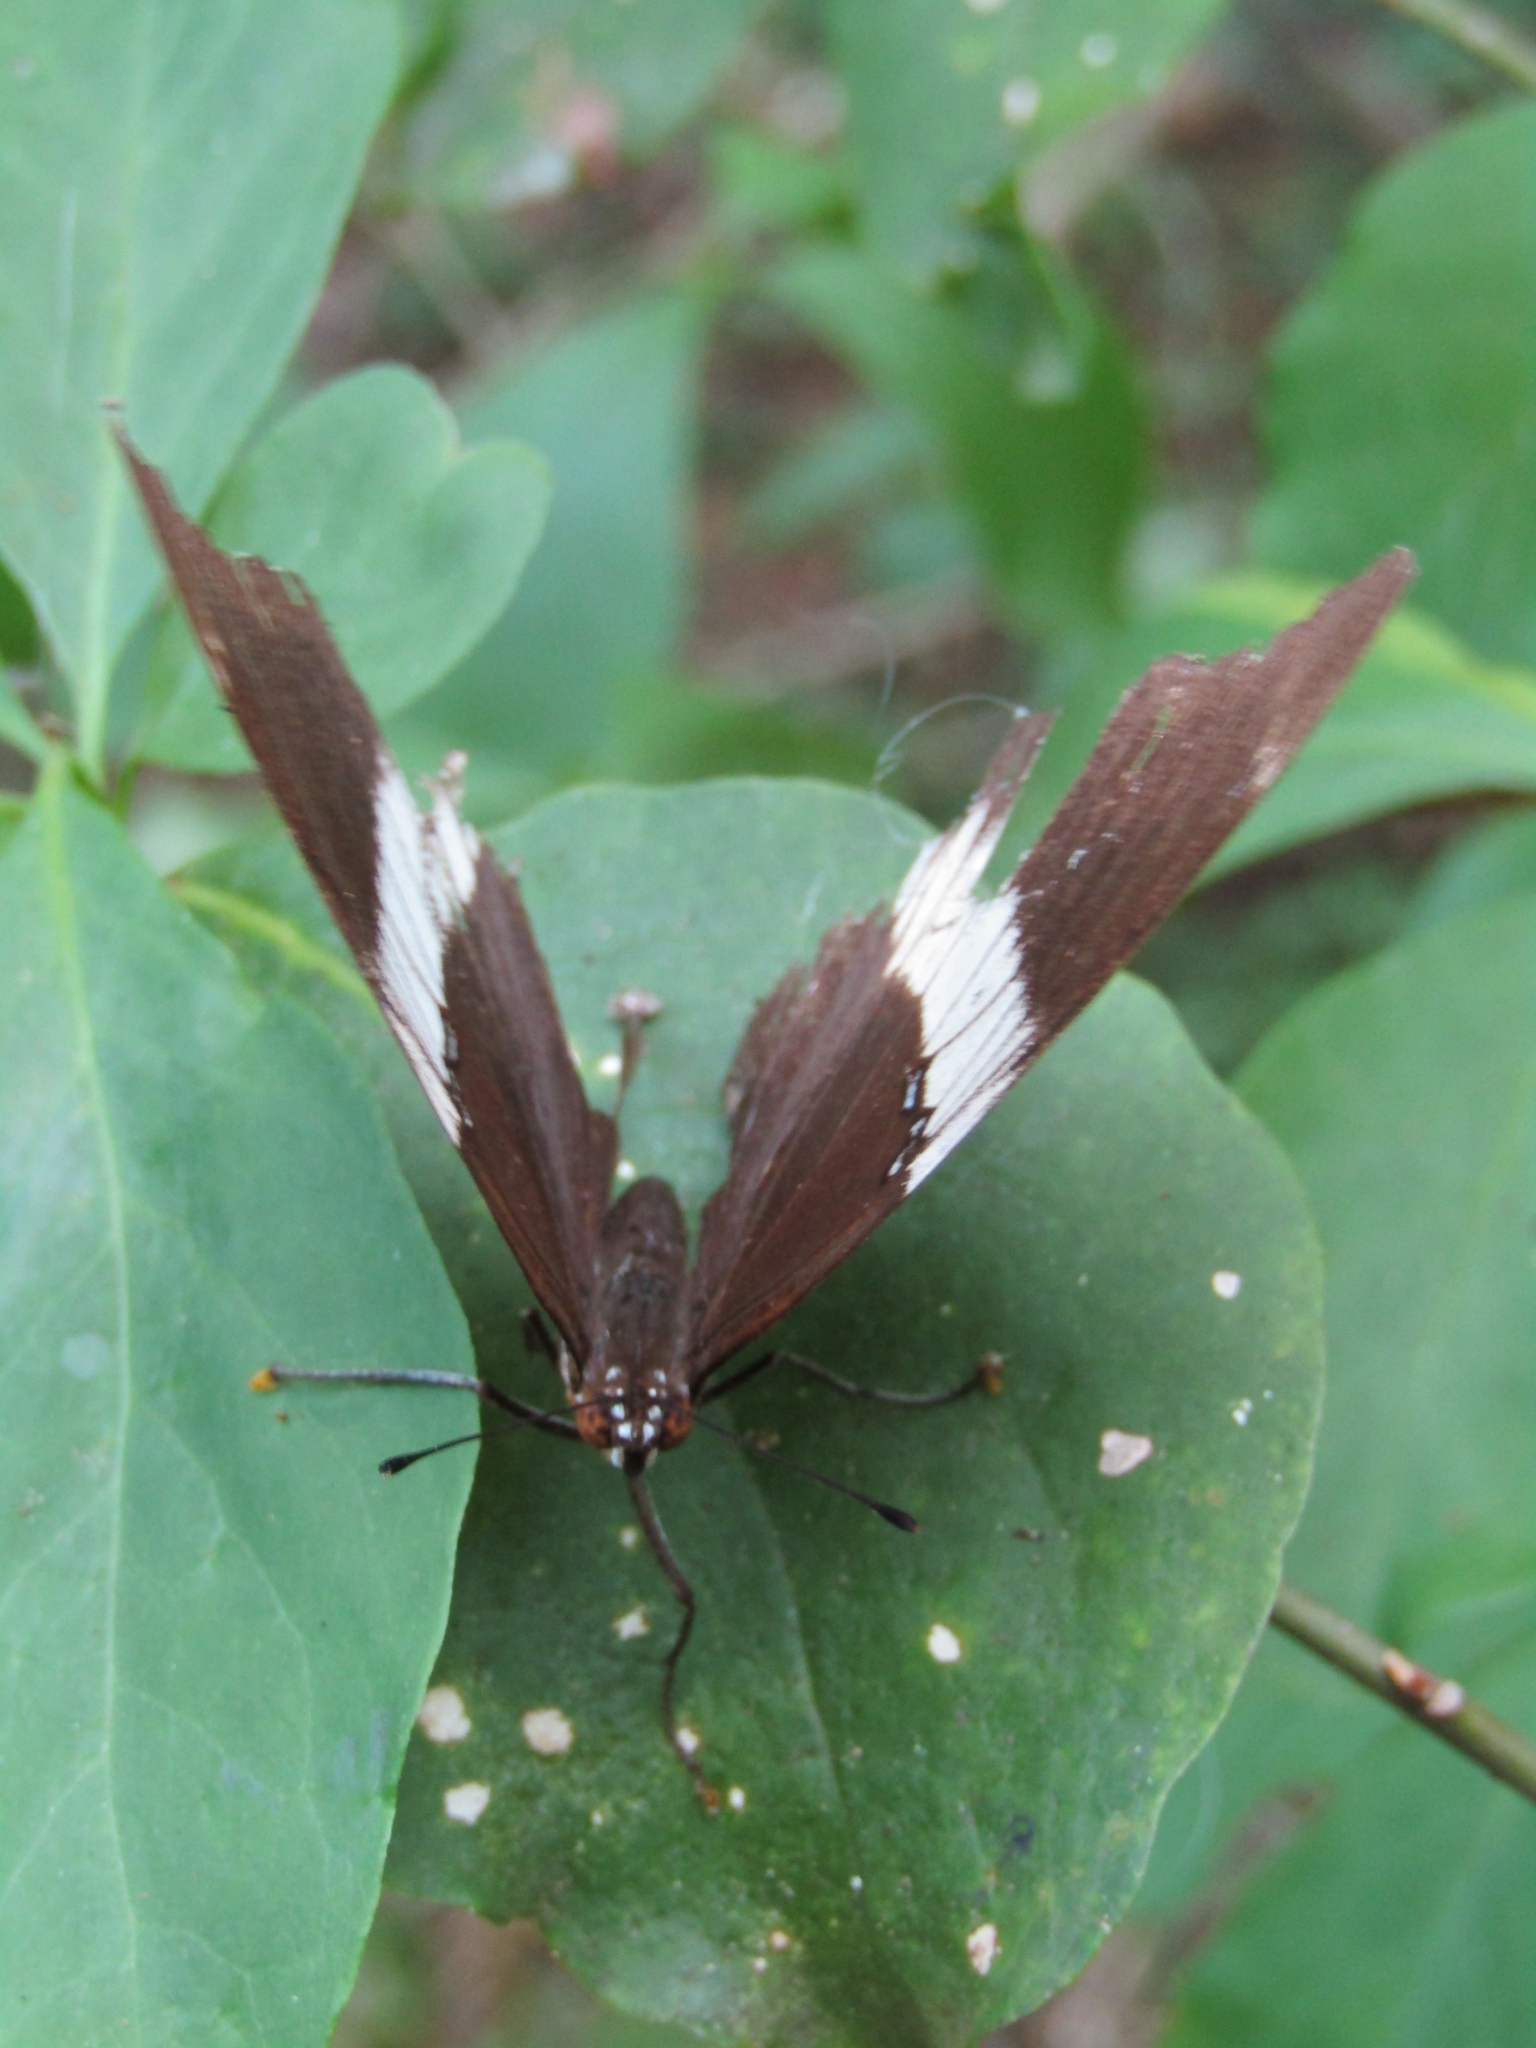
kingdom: Animalia
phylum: Arthropoda
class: Insecta
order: Lepidoptera
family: Nymphalidae
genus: Siproeta
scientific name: Siproeta epaphus
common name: Rusty-tipped page
